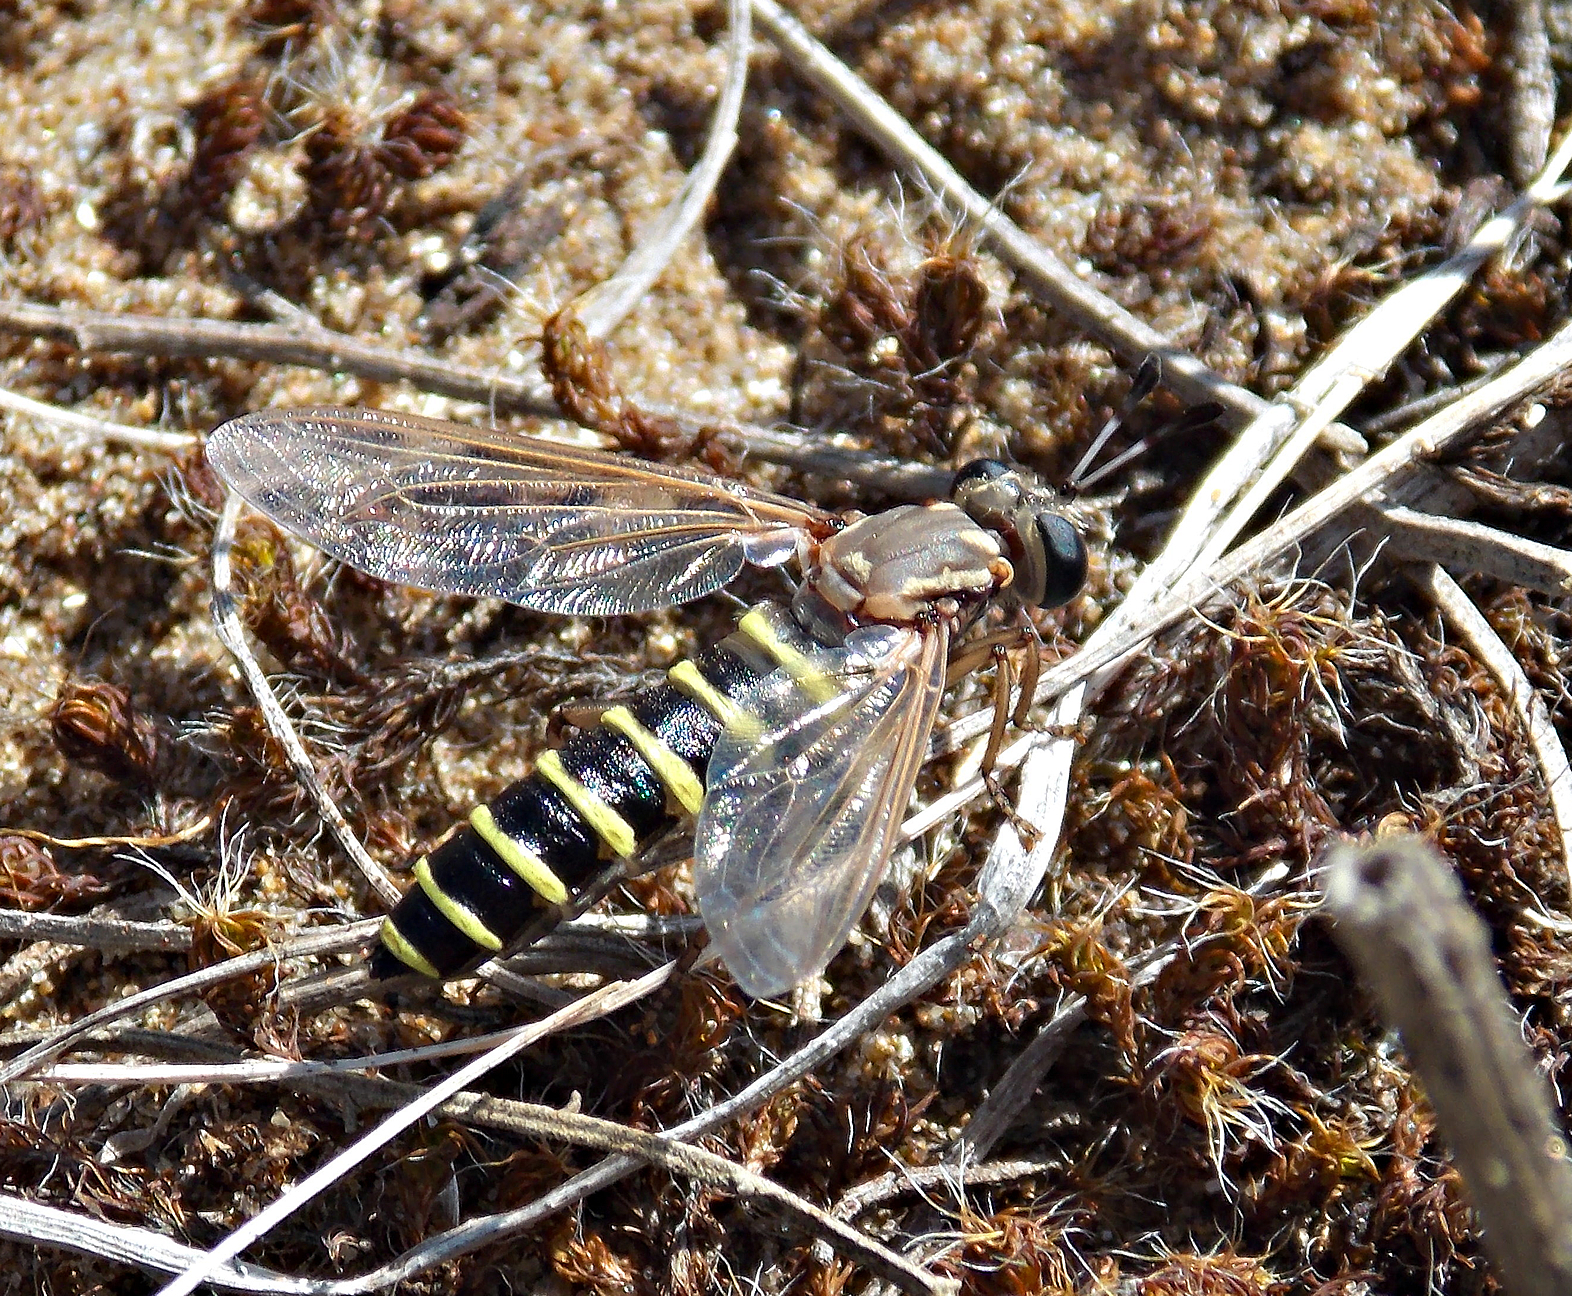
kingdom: Animalia
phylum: Arthropoda
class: Insecta
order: Diptera
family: Mydidae
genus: Messiasia
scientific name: Messiasia notospila
